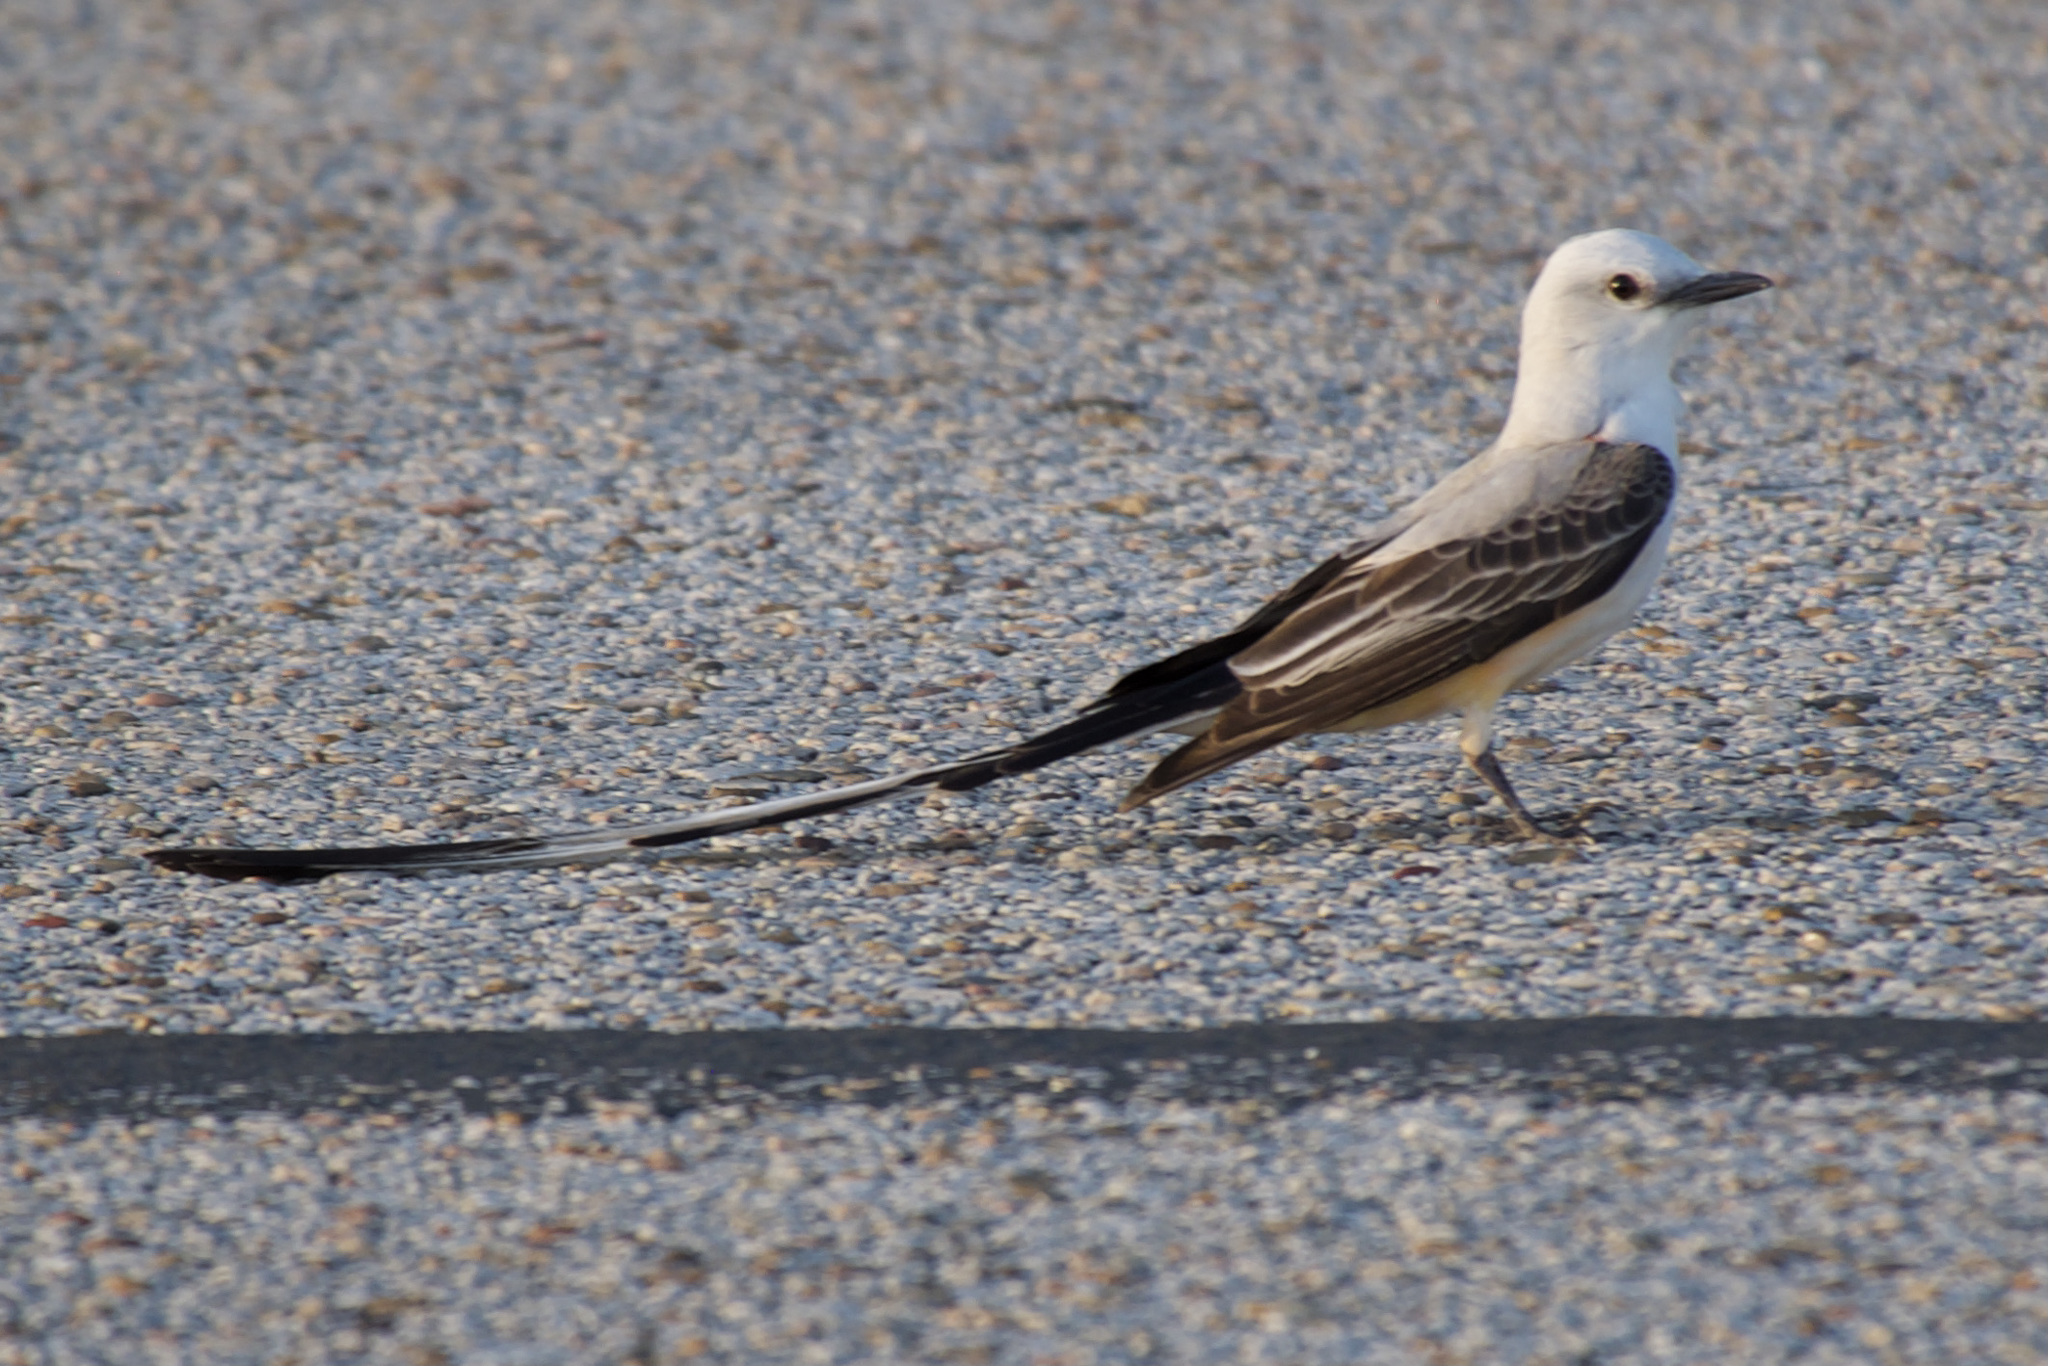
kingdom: Animalia
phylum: Chordata
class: Aves
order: Passeriformes
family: Tyrannidae
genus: Tyrannus
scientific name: Tyrannus forficatus
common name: Scissor-tailed flycatcher
